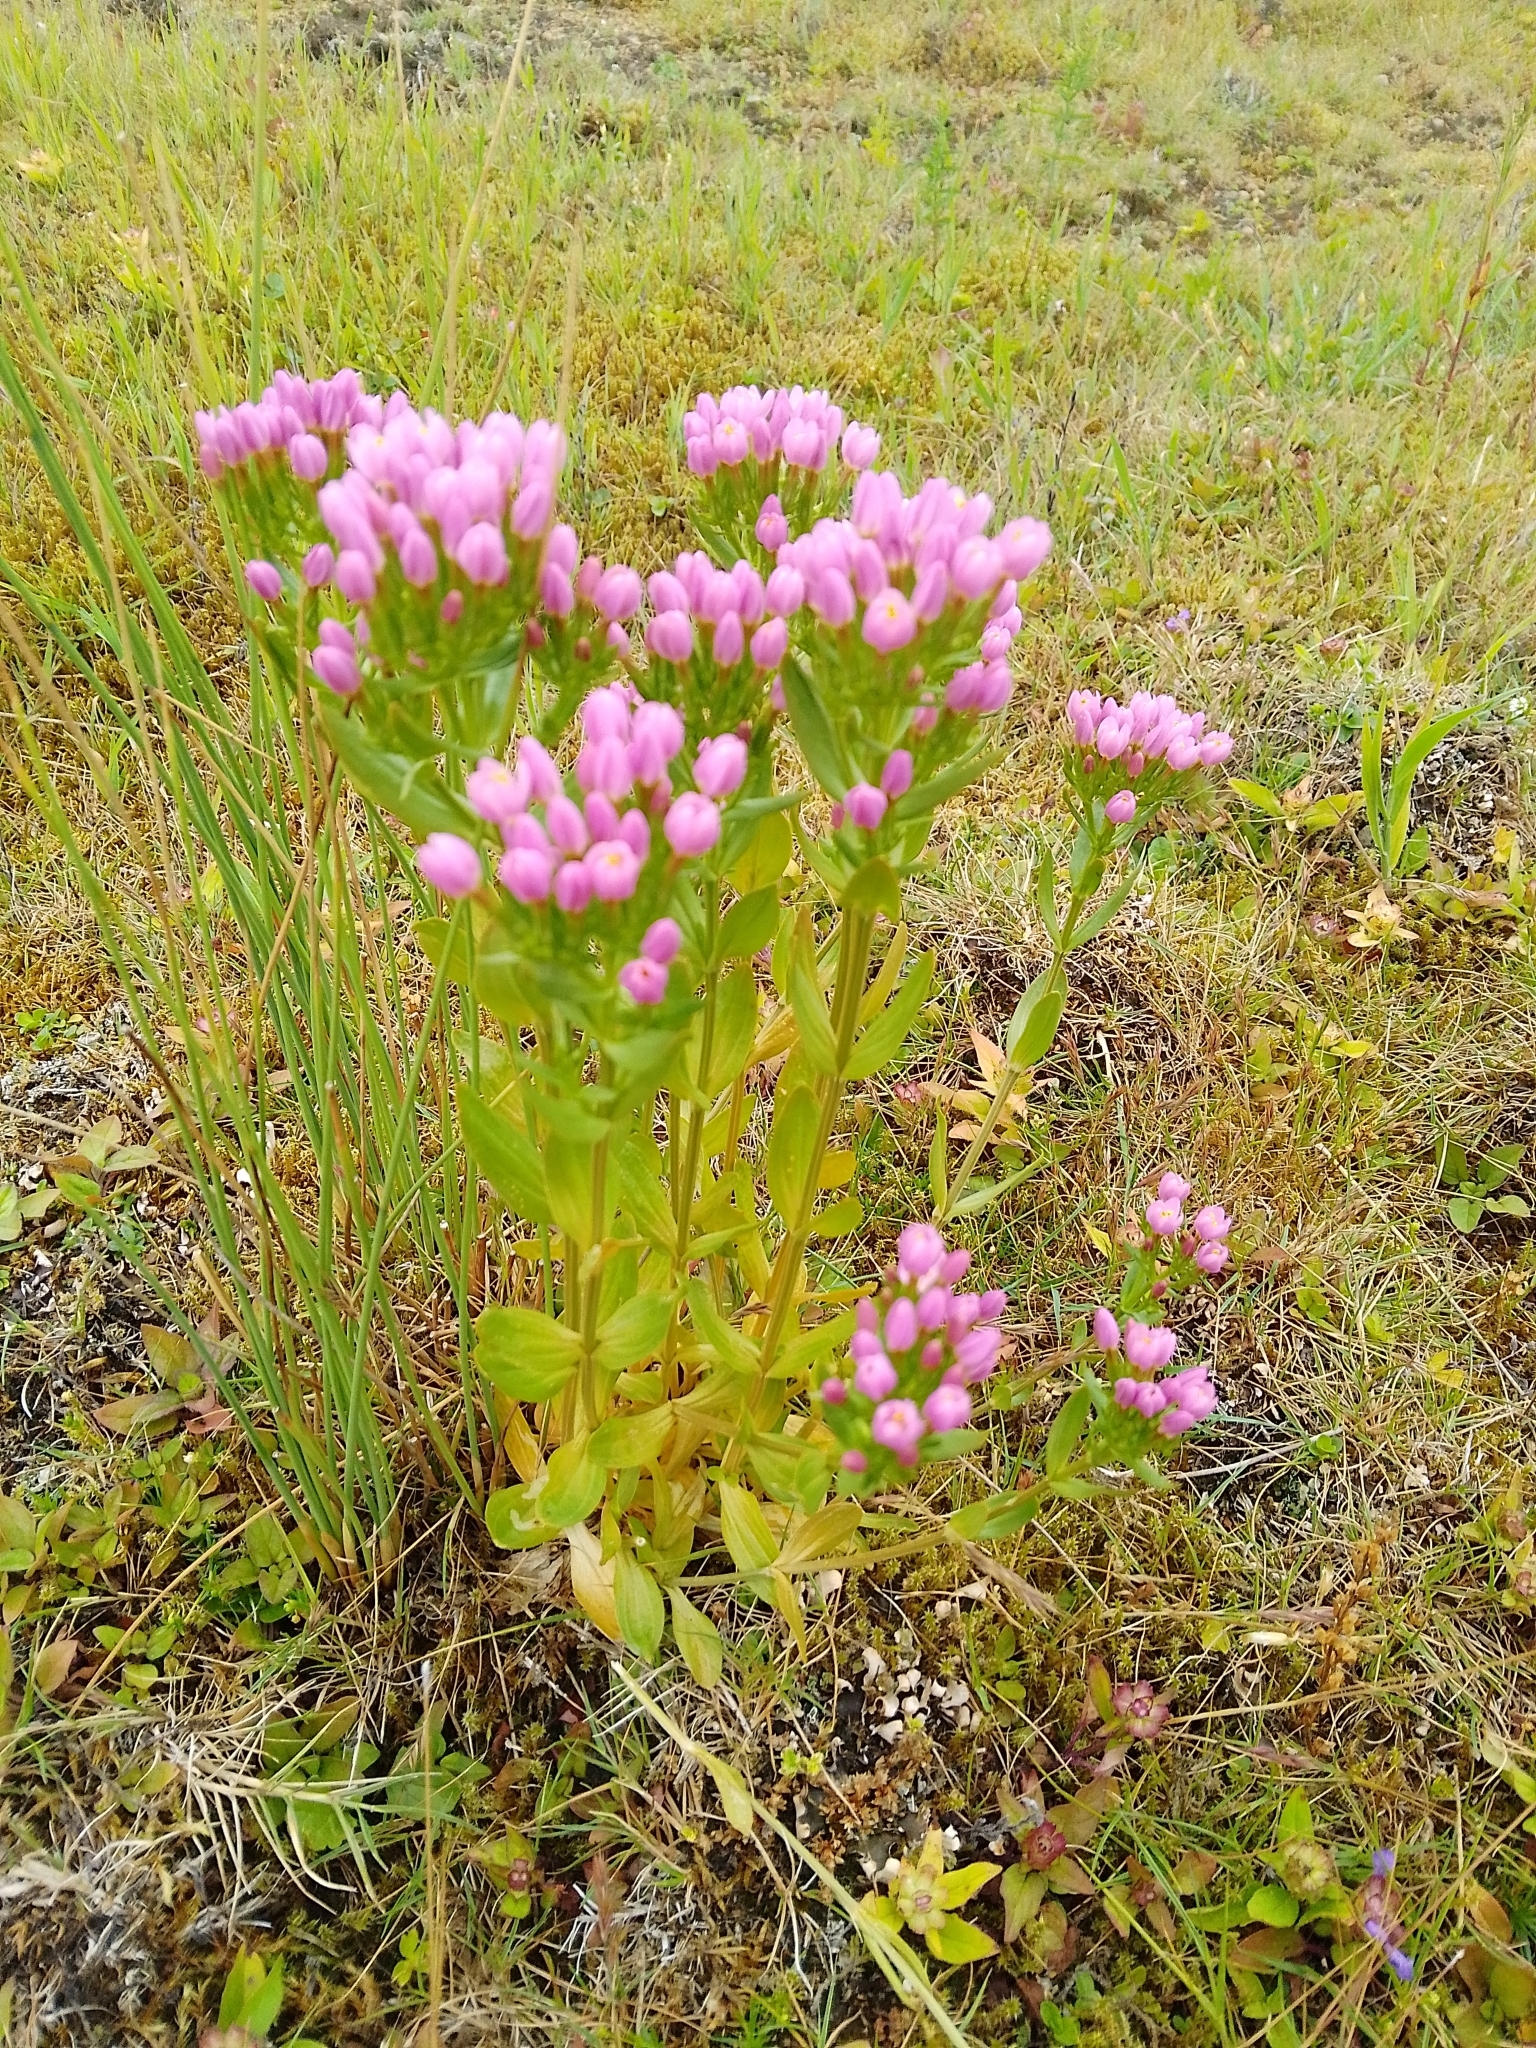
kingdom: Plantae
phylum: Tracheophyta
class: Magnoliopsida
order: Gentianales
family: Gentianaceae
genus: Centaurium
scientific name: Centaurium erythraea
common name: Common centaury
